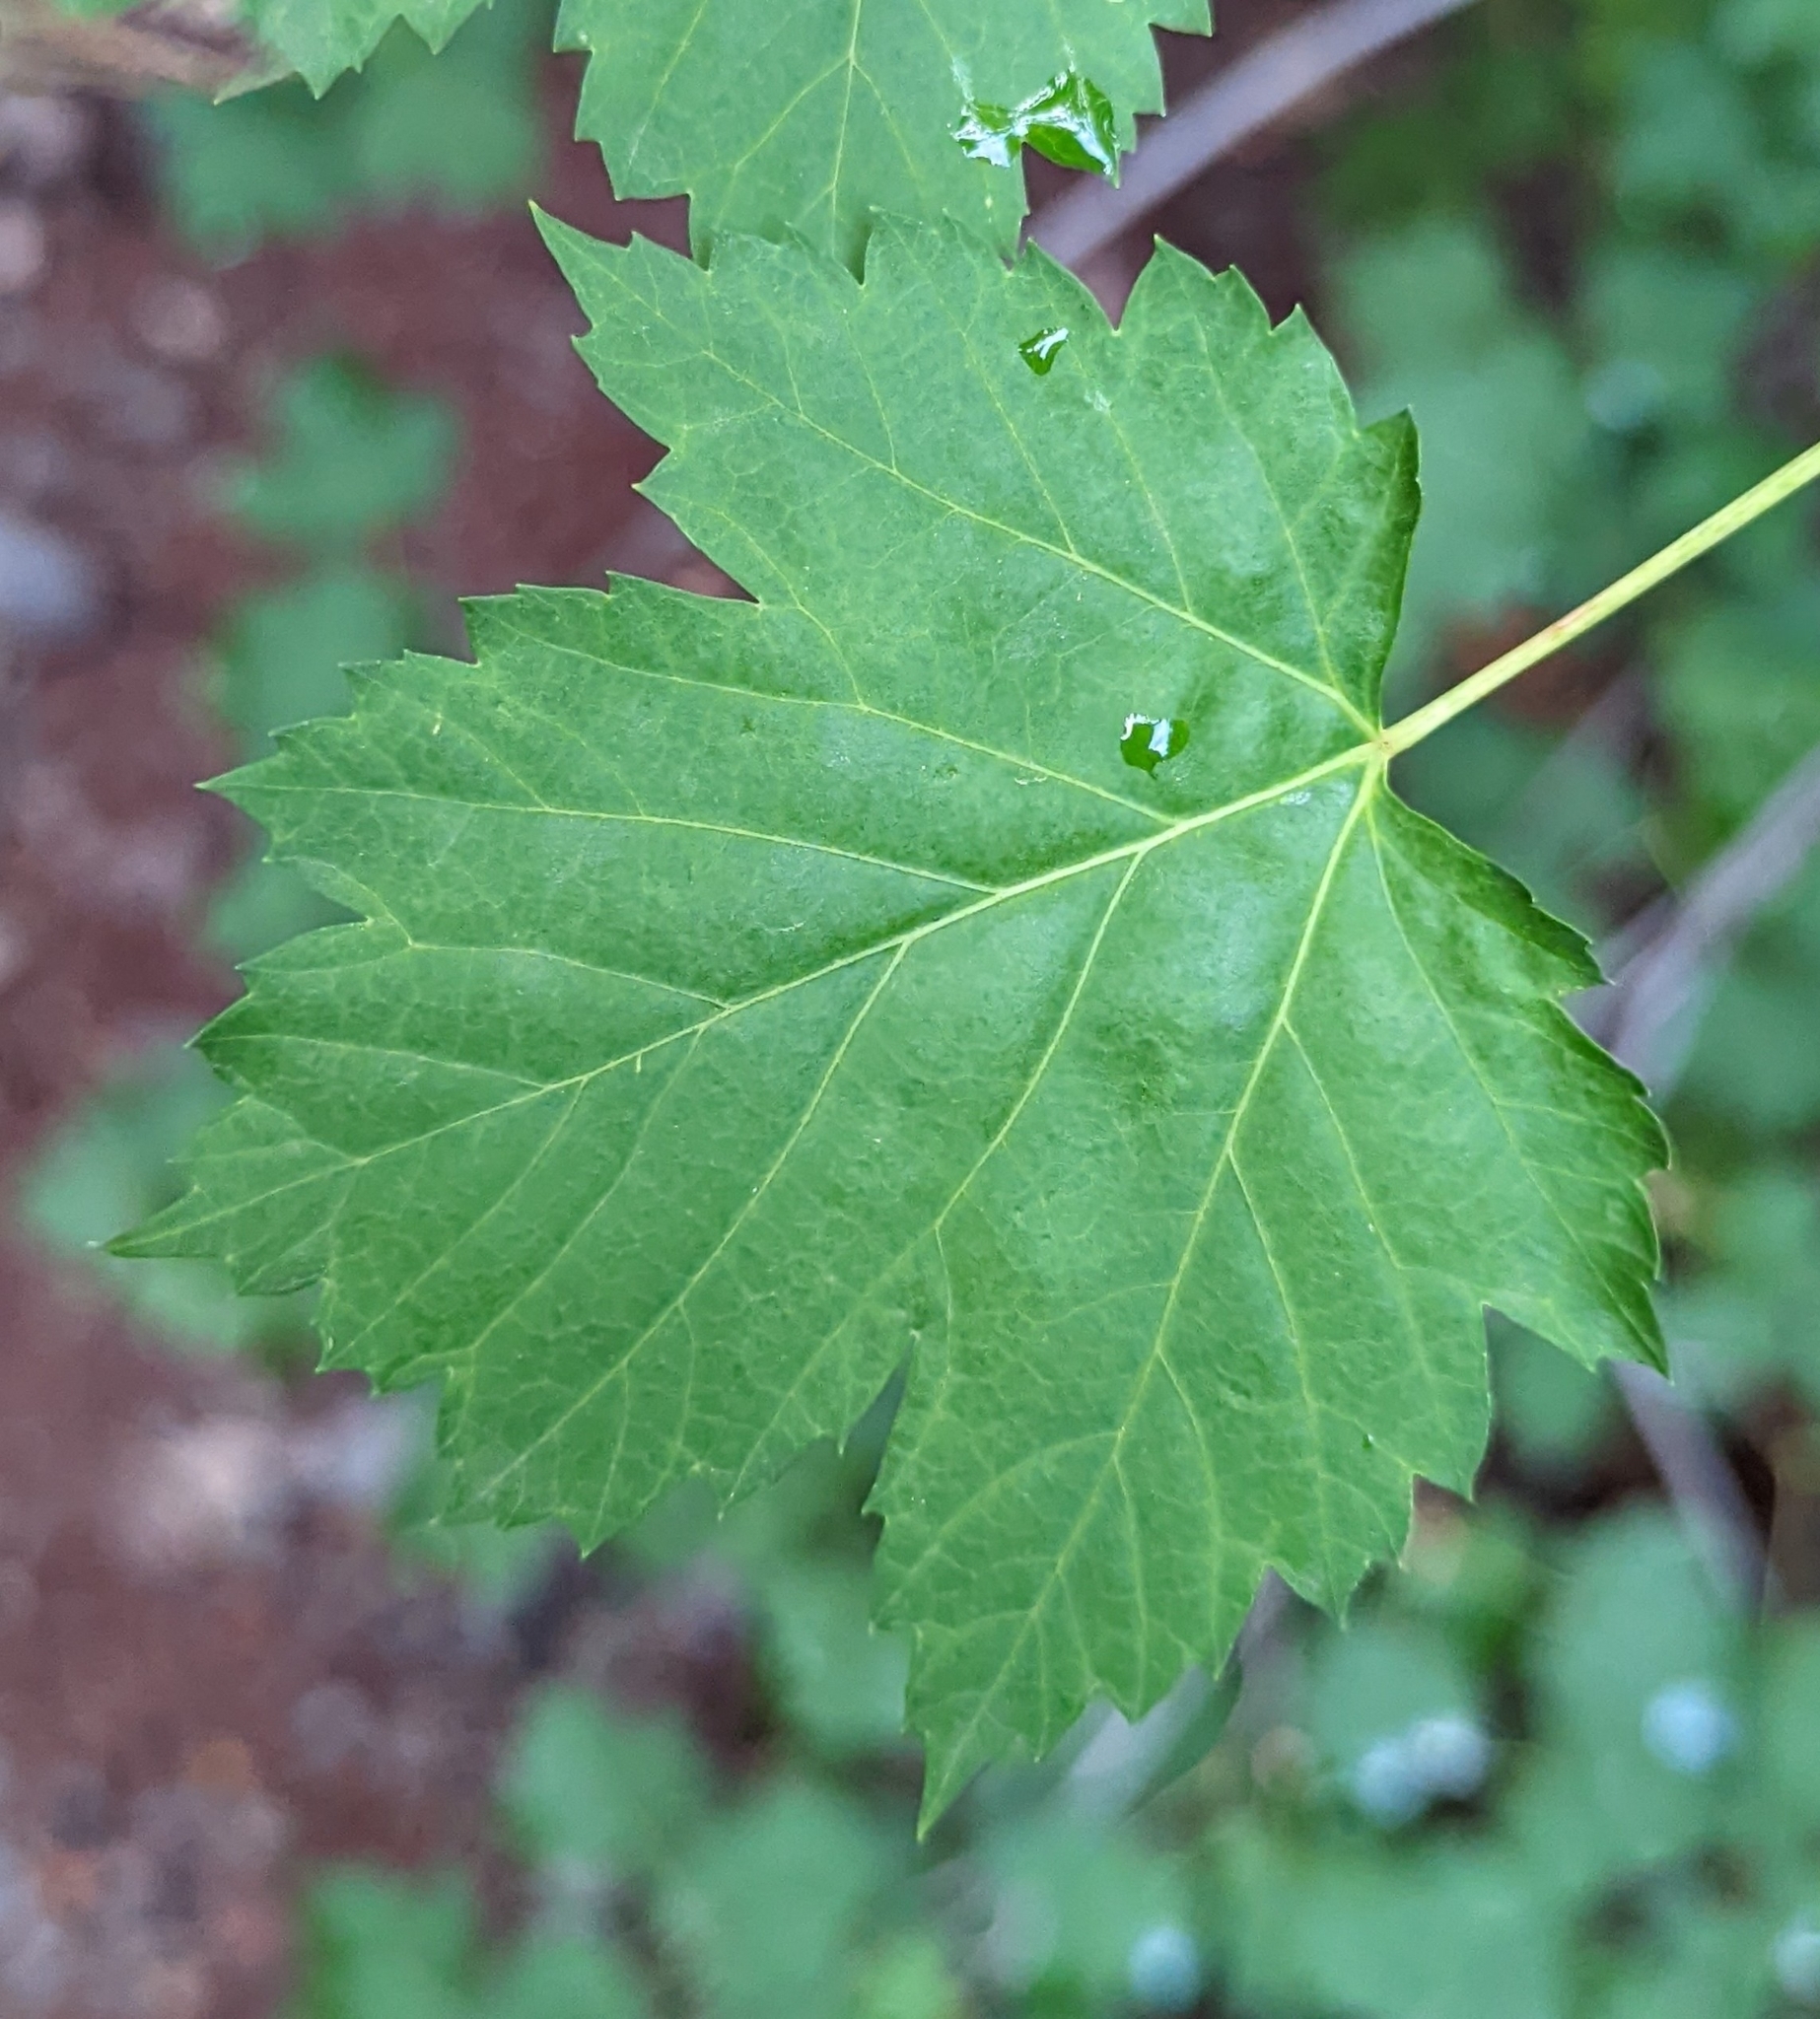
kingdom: Plantae
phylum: Tracheophyta
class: Magnoliopsida
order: Sapindales
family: Sapindaceae
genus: Acer
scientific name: Acer glabrum
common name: Rocky mountain maple
